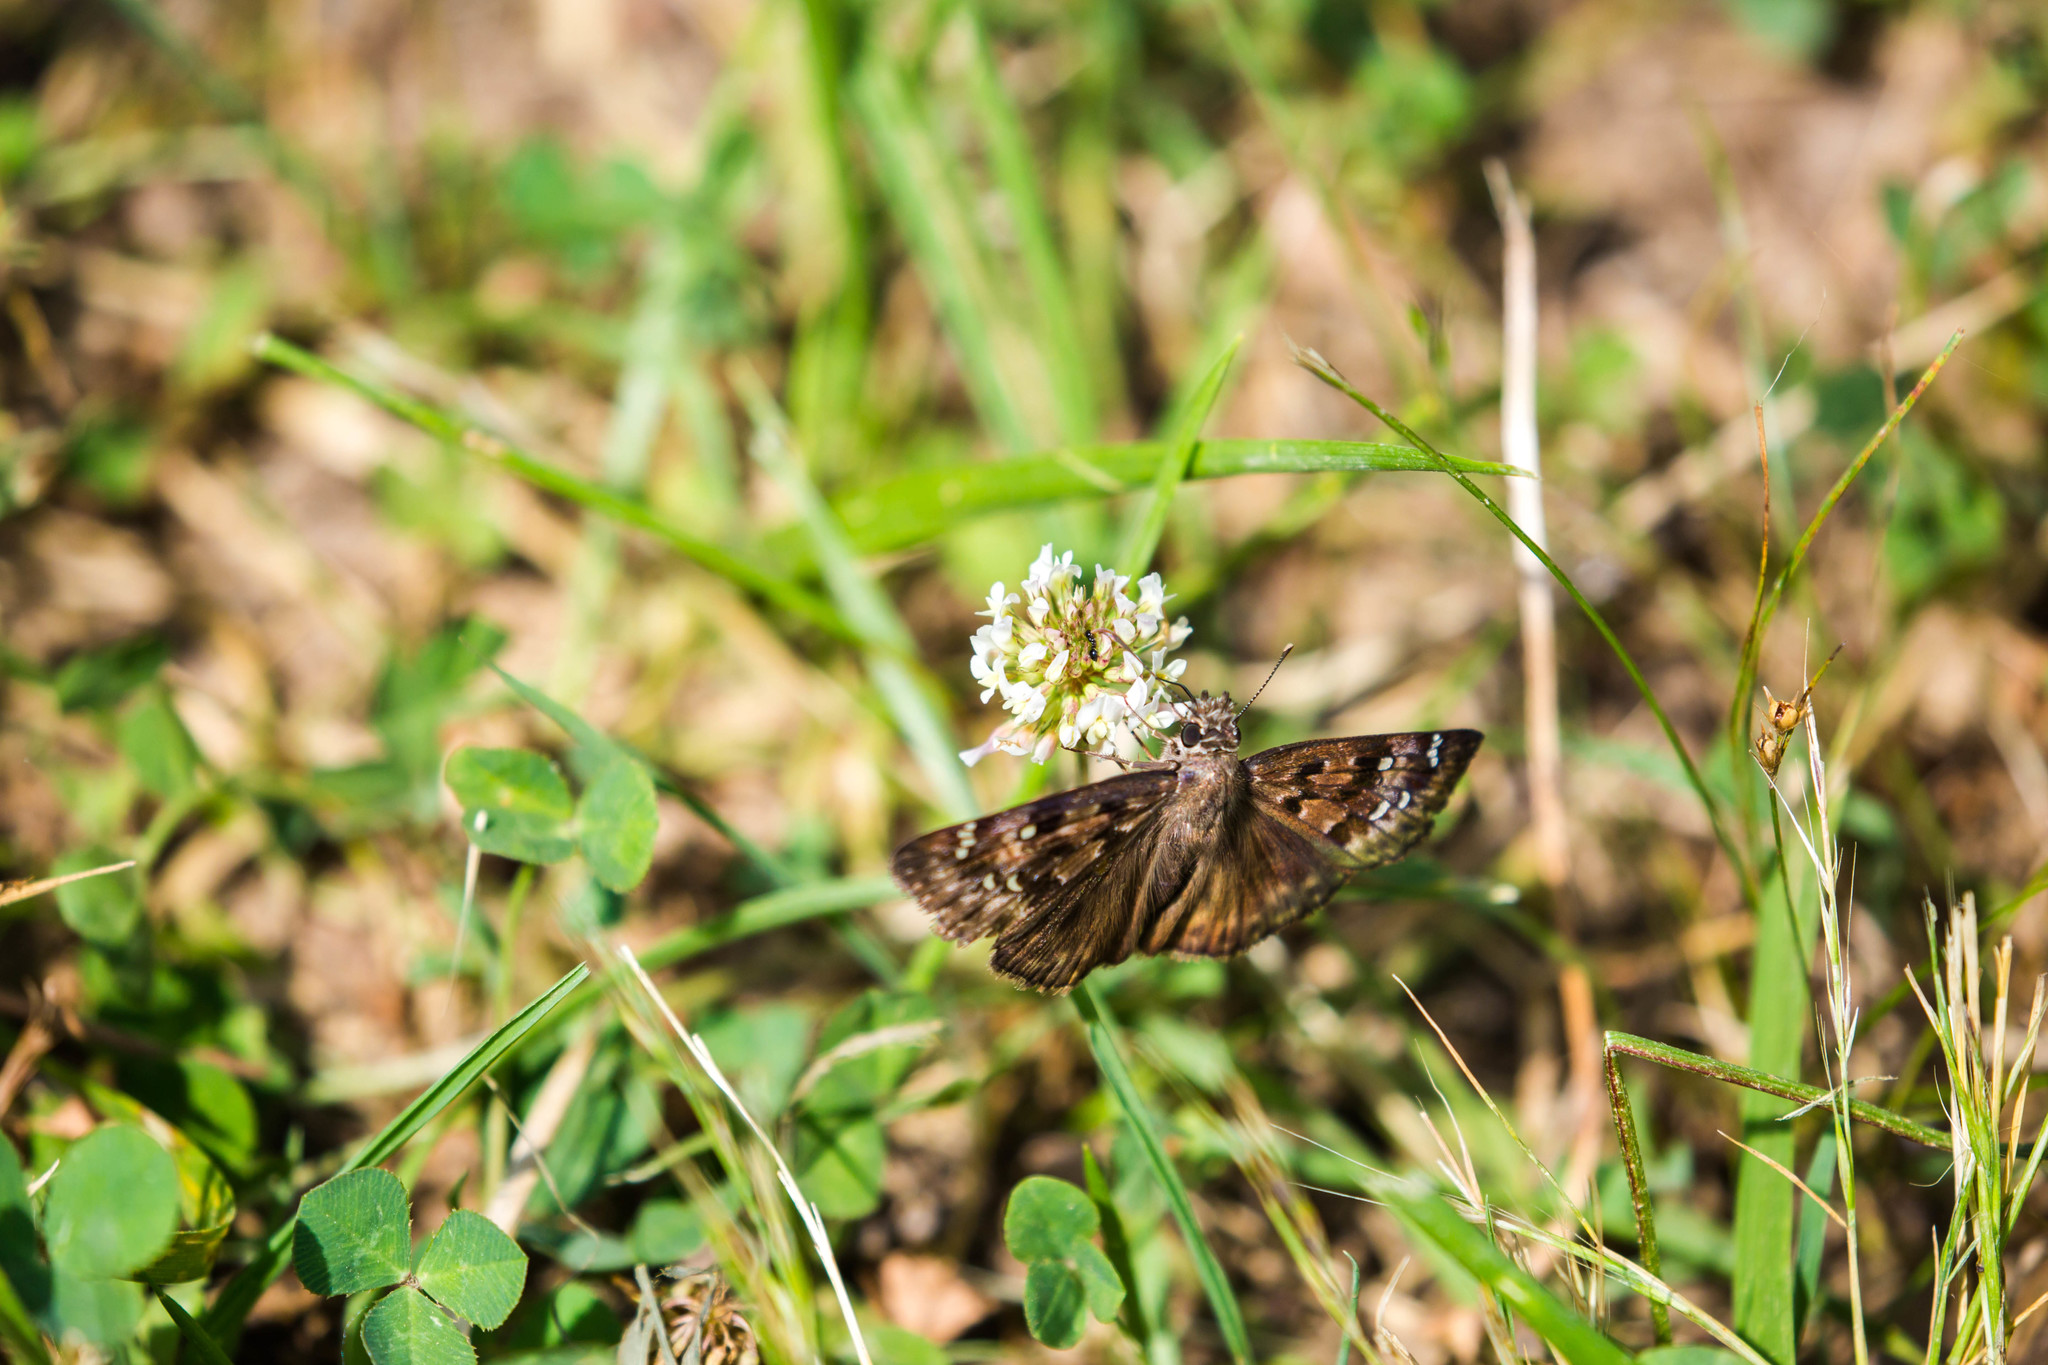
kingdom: Animalia
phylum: Arthropoda
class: Insecta
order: Lepidoptera
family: Hesperiidae
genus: Erynnis
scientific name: Erynnis horatius
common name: Horace's duskywing
